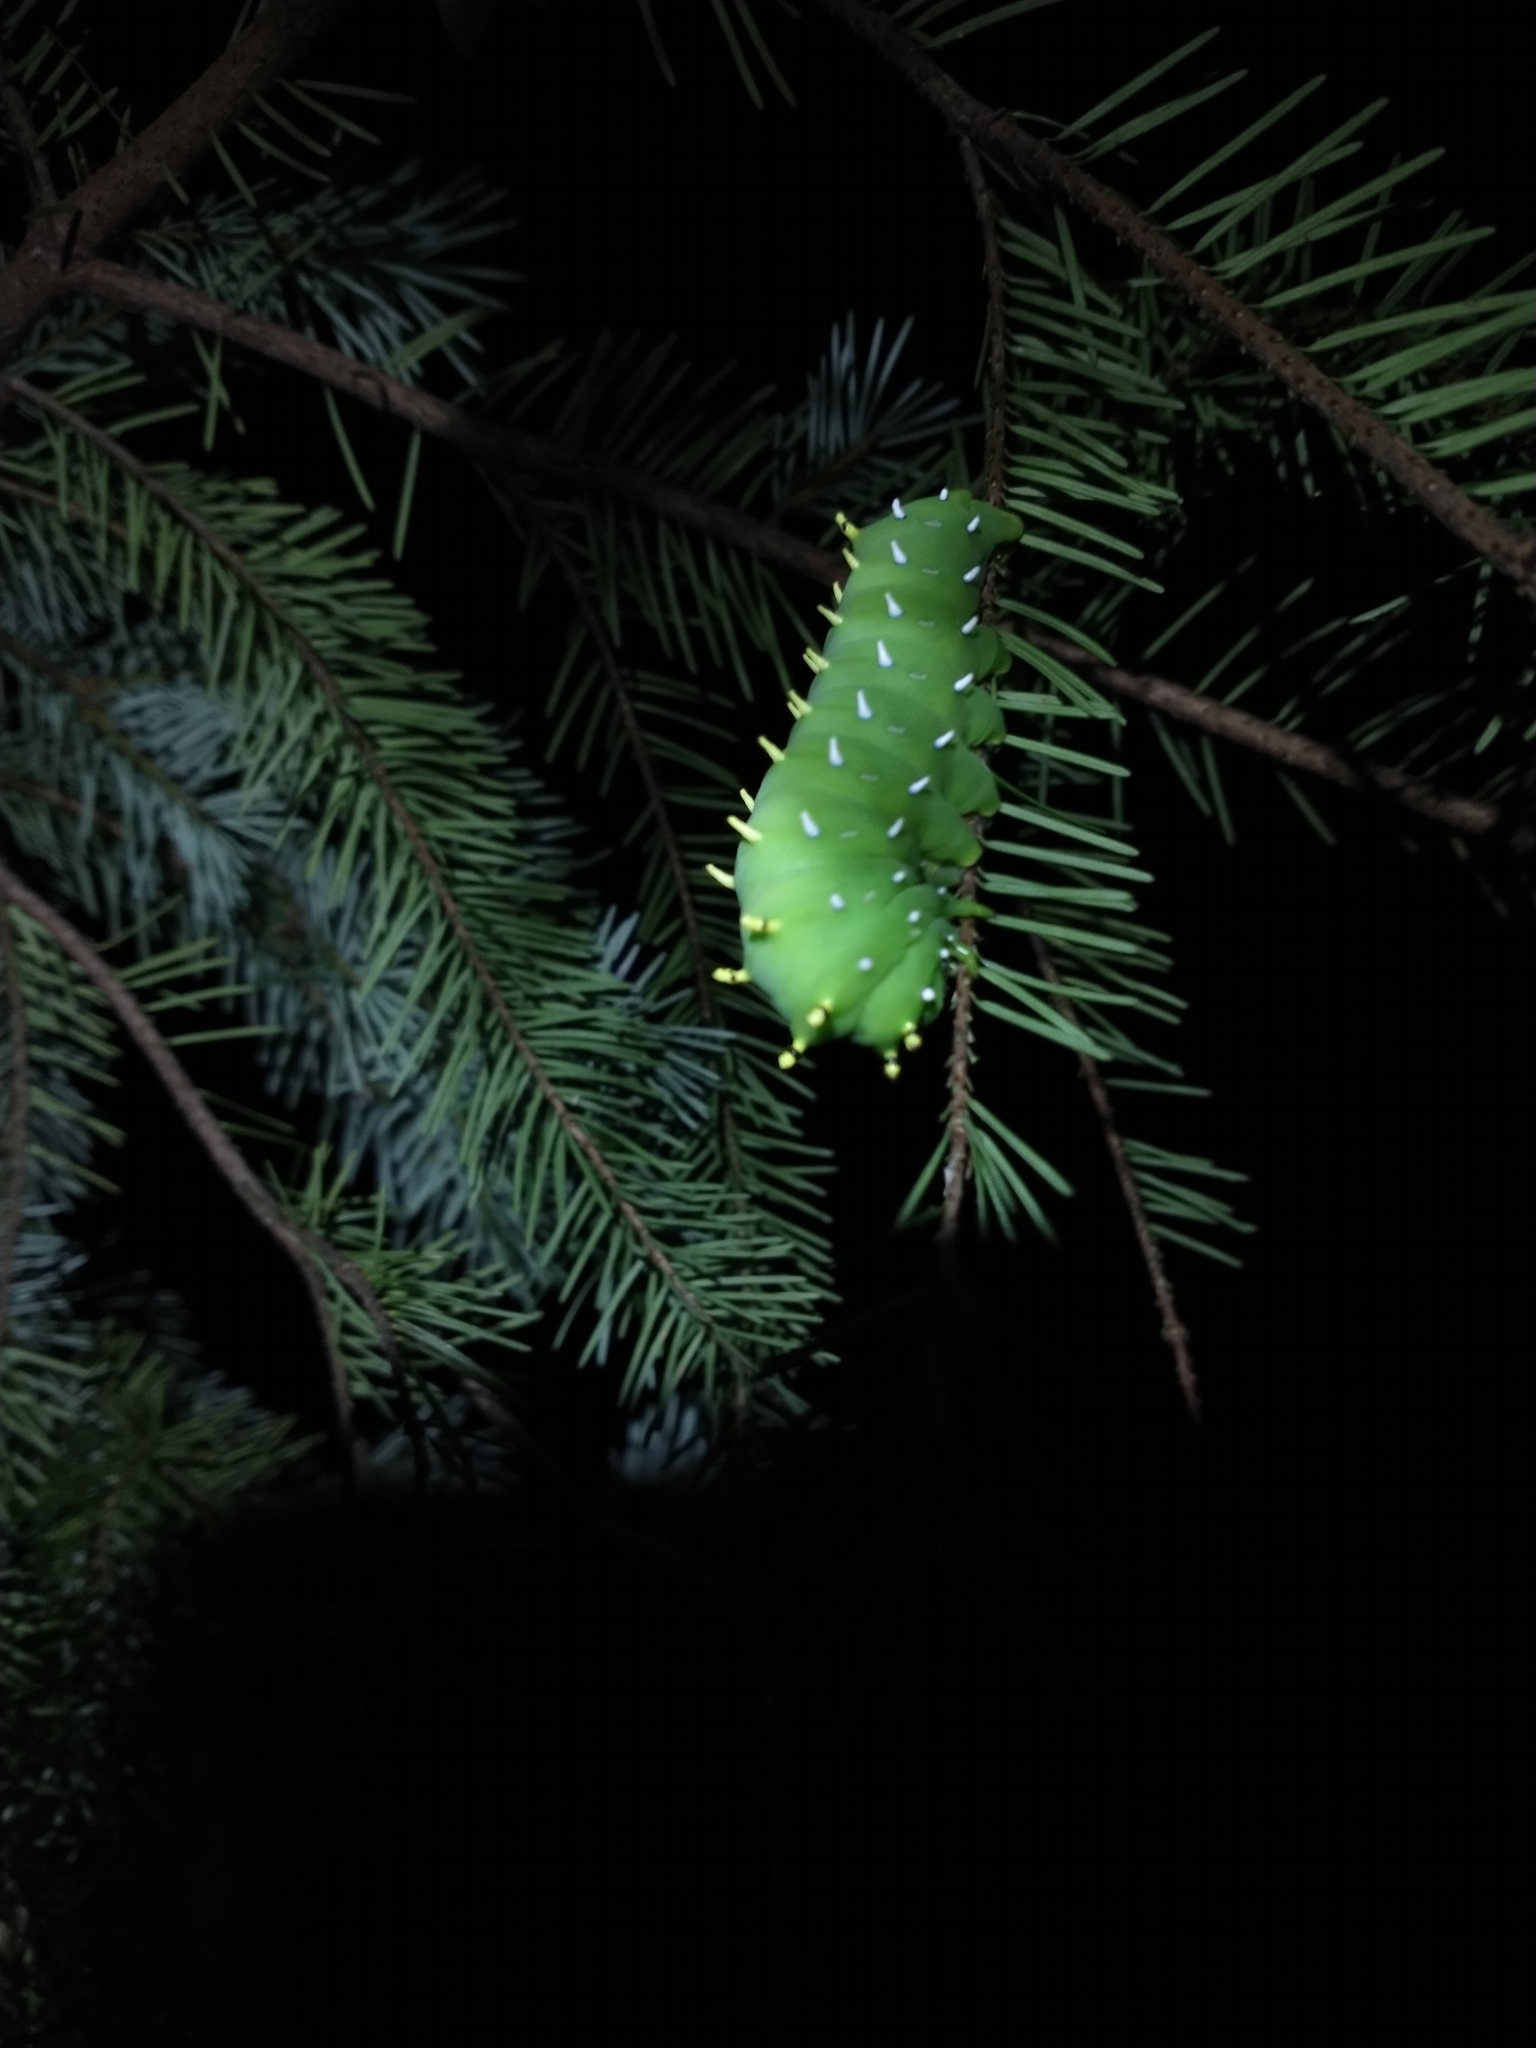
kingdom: Animalia
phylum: Arthropoda
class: Insecta
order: Lepidoptera
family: Saturniidae
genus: Hyalophora
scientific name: Hyalophora euryalus
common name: Ceanothus silkmoth
